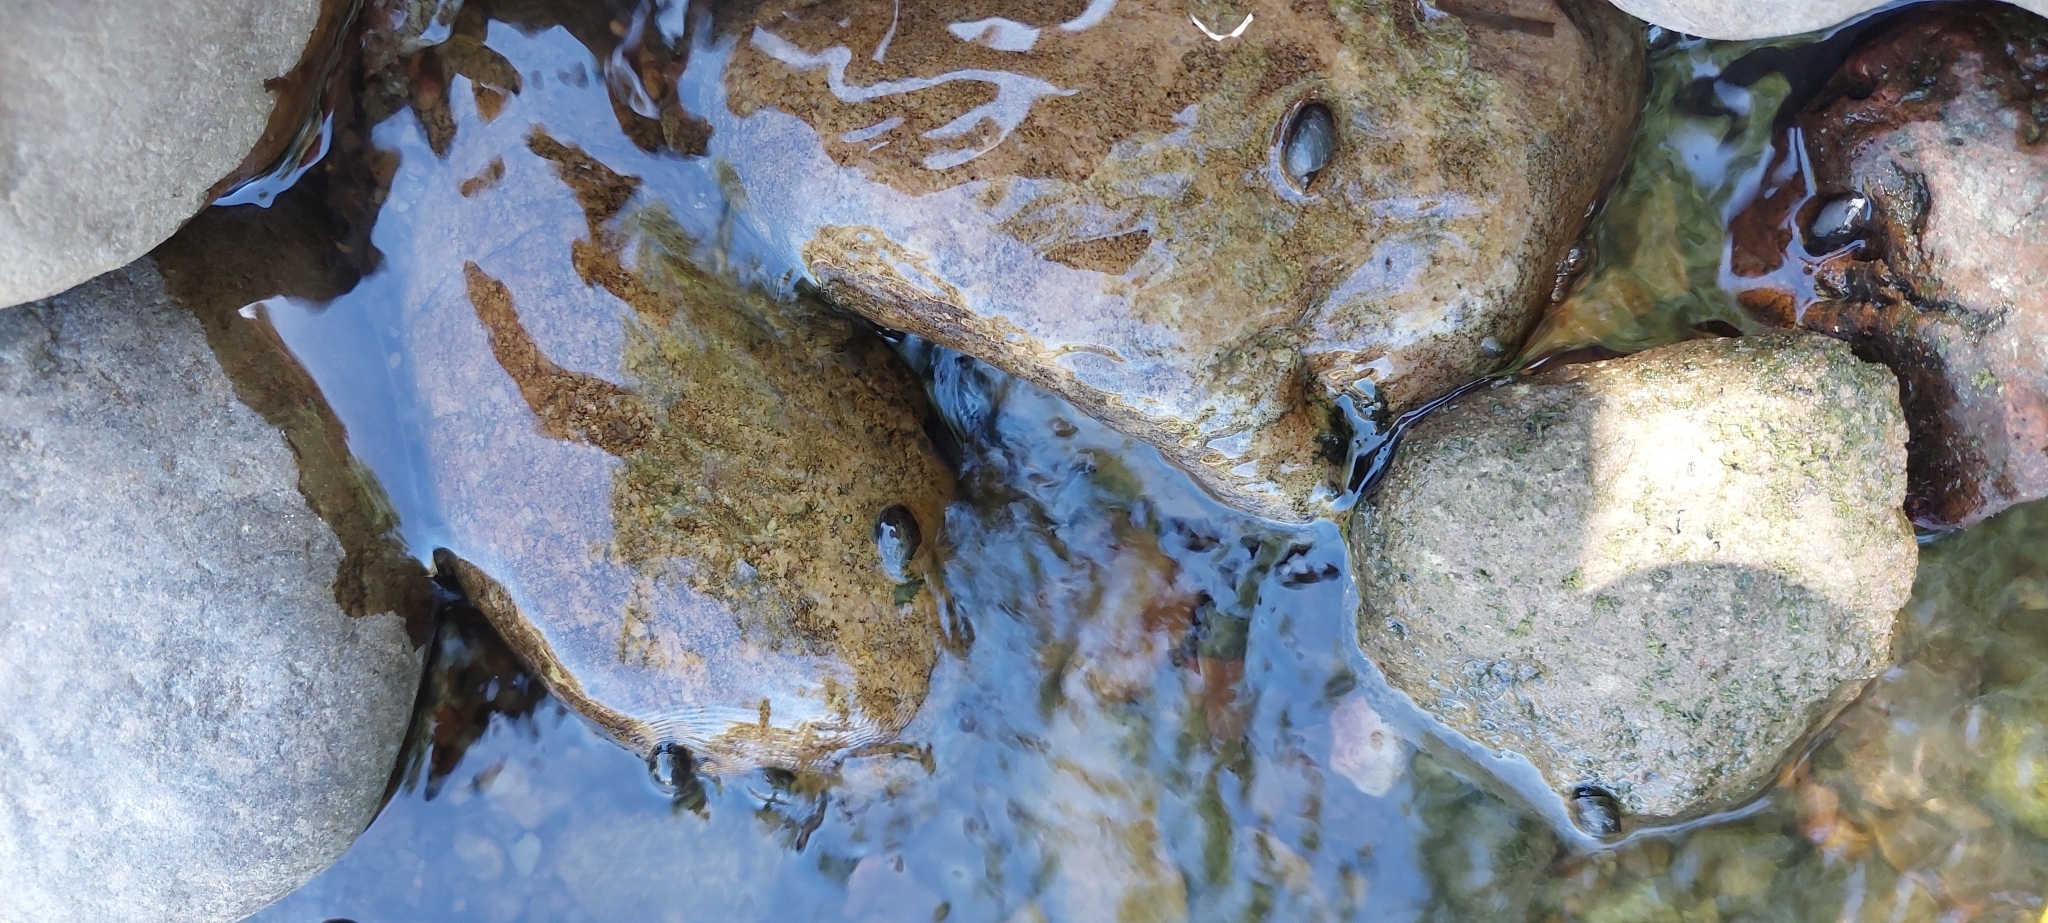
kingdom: Animalia
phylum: Mollusca
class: Gastropoda
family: Chilinidae
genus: Chilina
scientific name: Chilina parchappii
